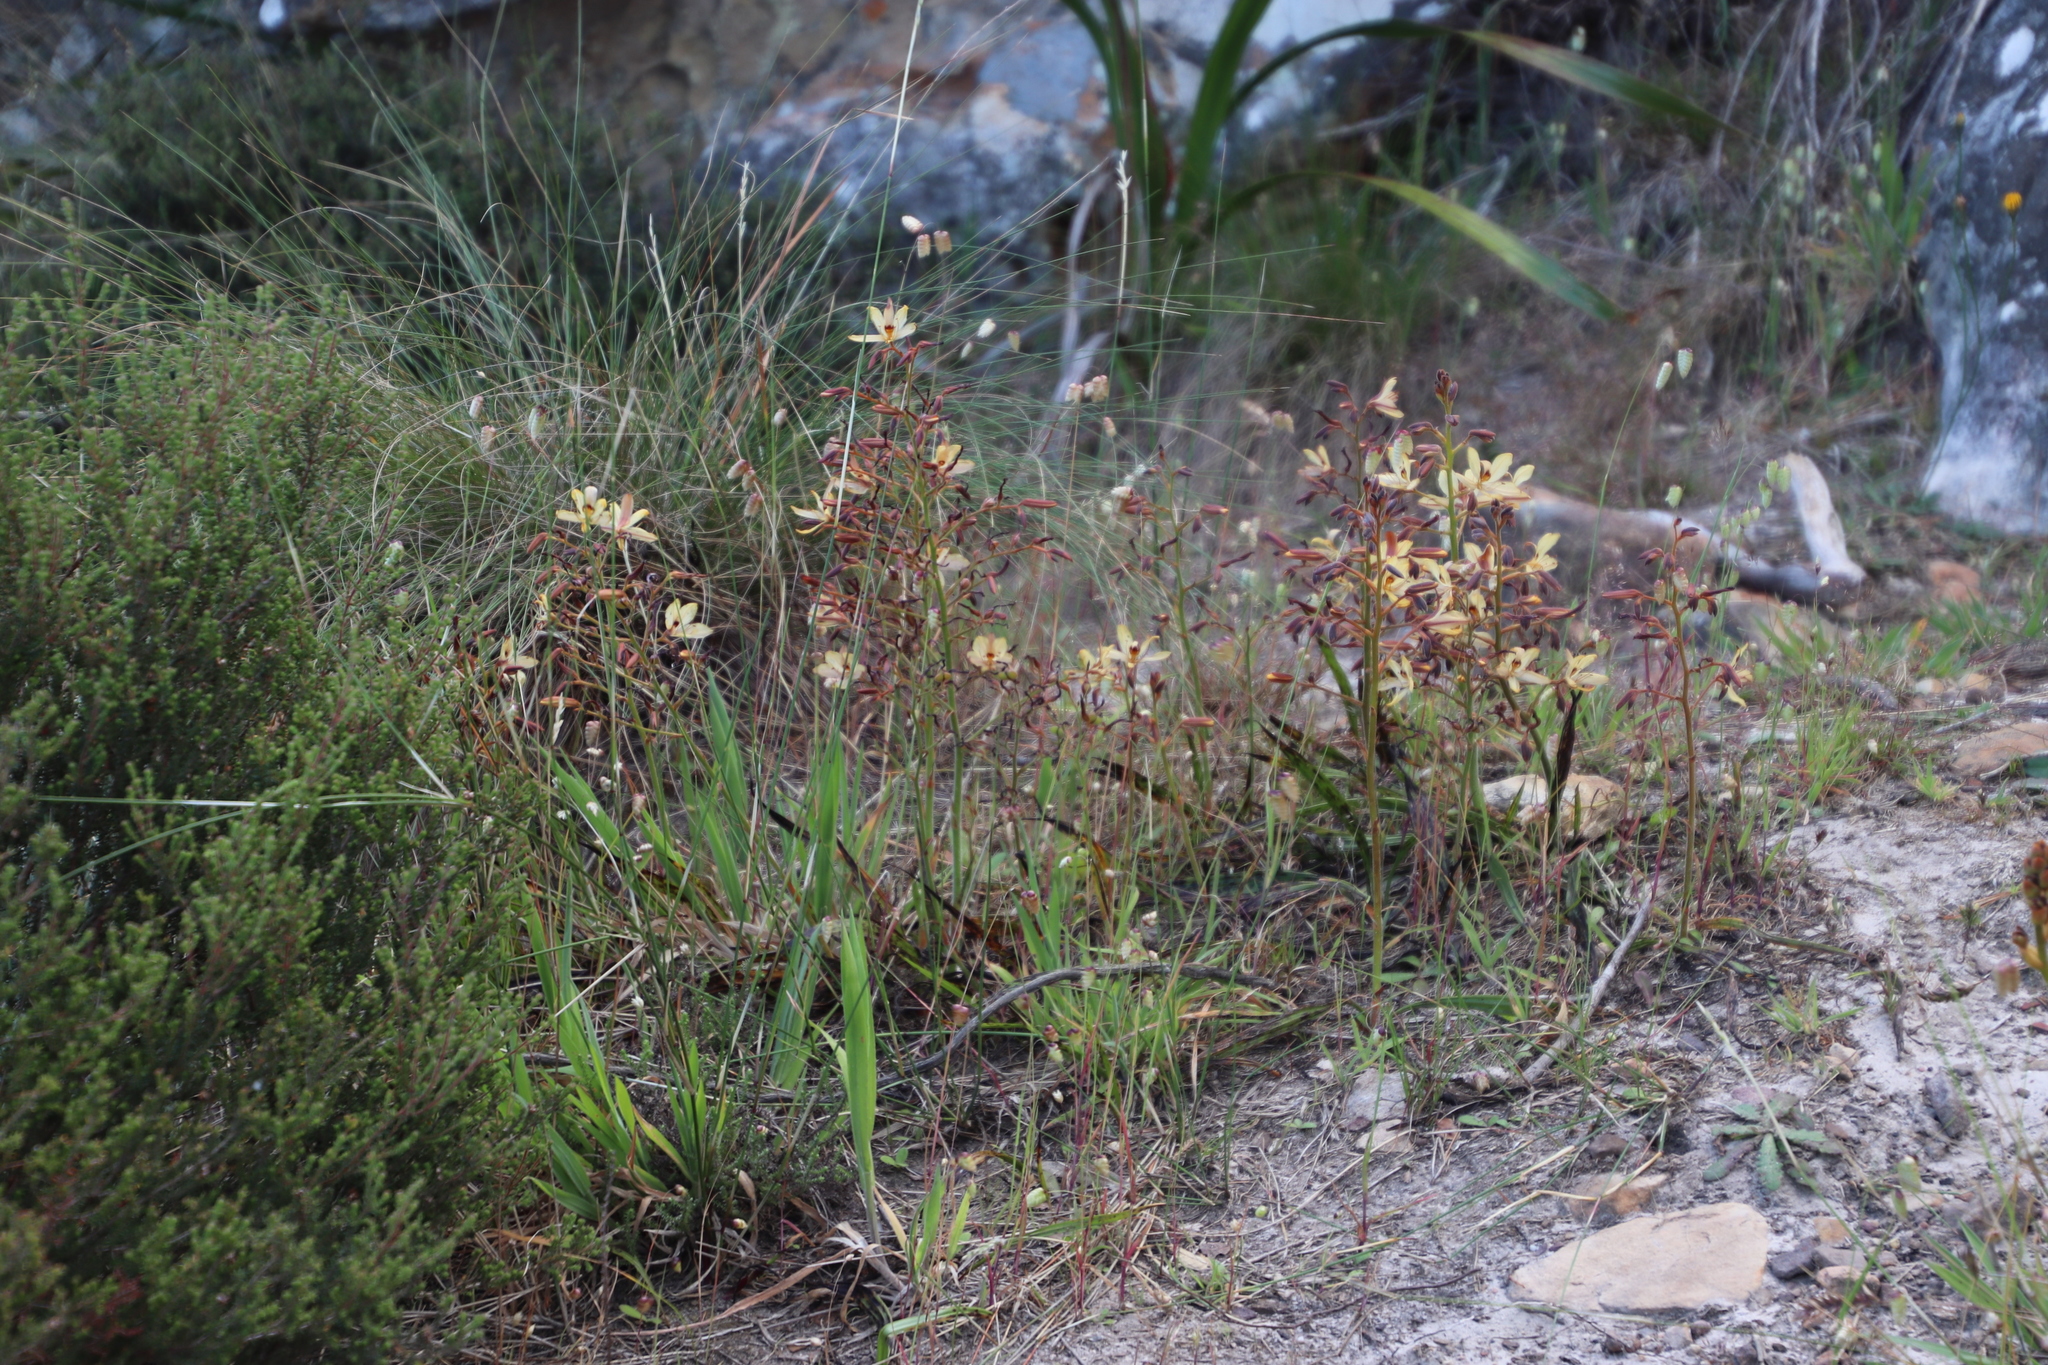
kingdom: Plantae
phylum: Tracheophyta
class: Liliopsida
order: Commelinales
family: Haemodoraceae
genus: Wachendorfia
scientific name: Wachendorfia paniculata
